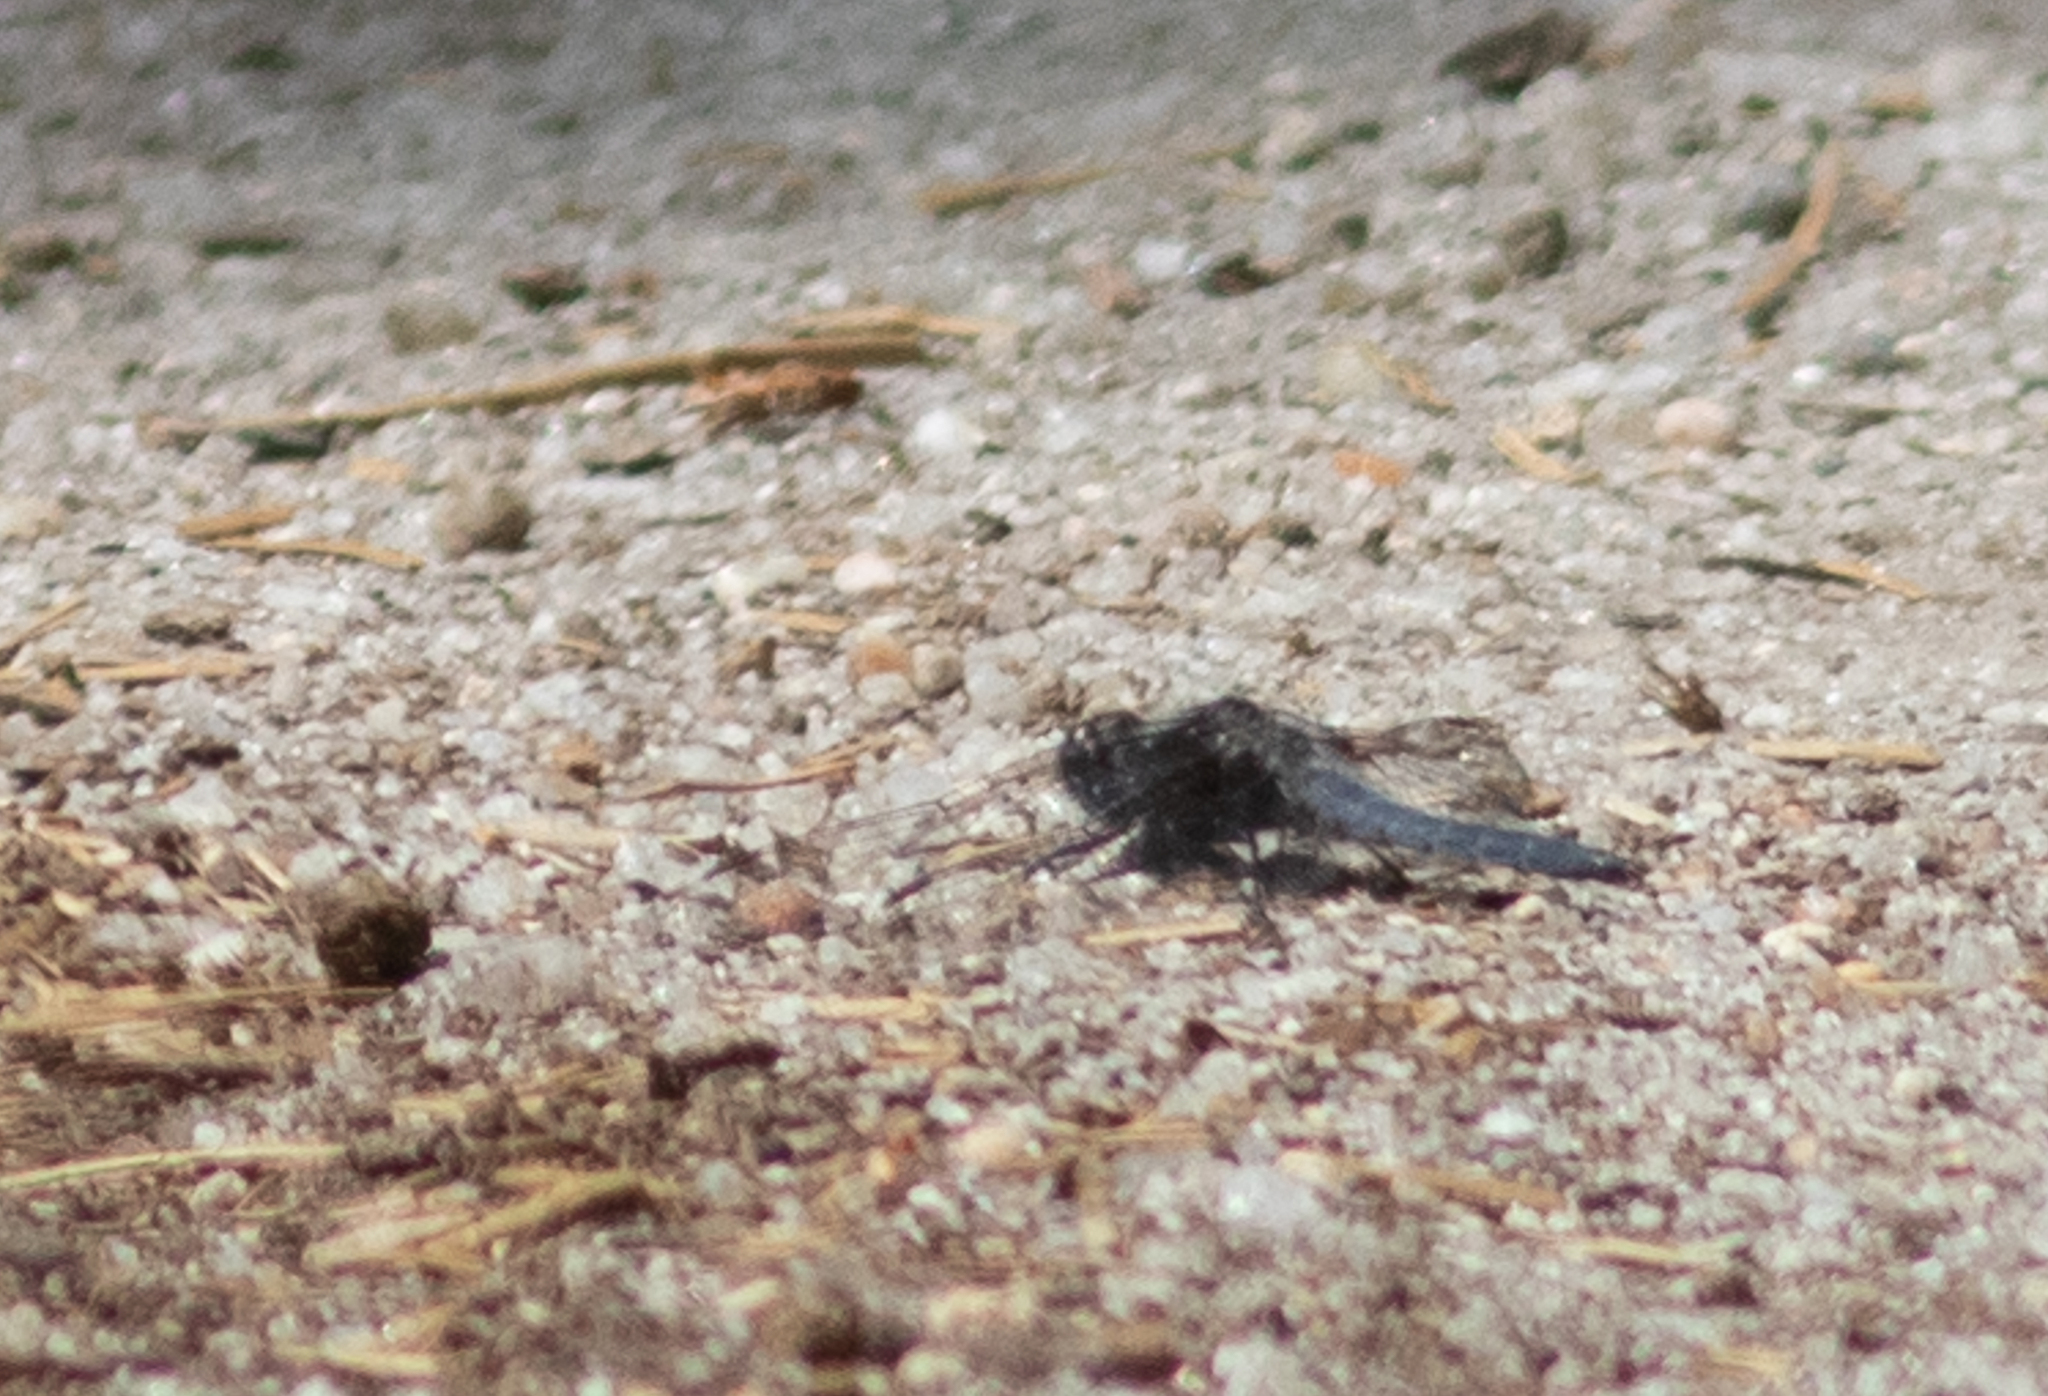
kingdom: Animalia
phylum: Arthropoda
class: Insecta
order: Odonata
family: Libellulidae
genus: Ladona
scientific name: Ladona deplanata
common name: Blue corporal
